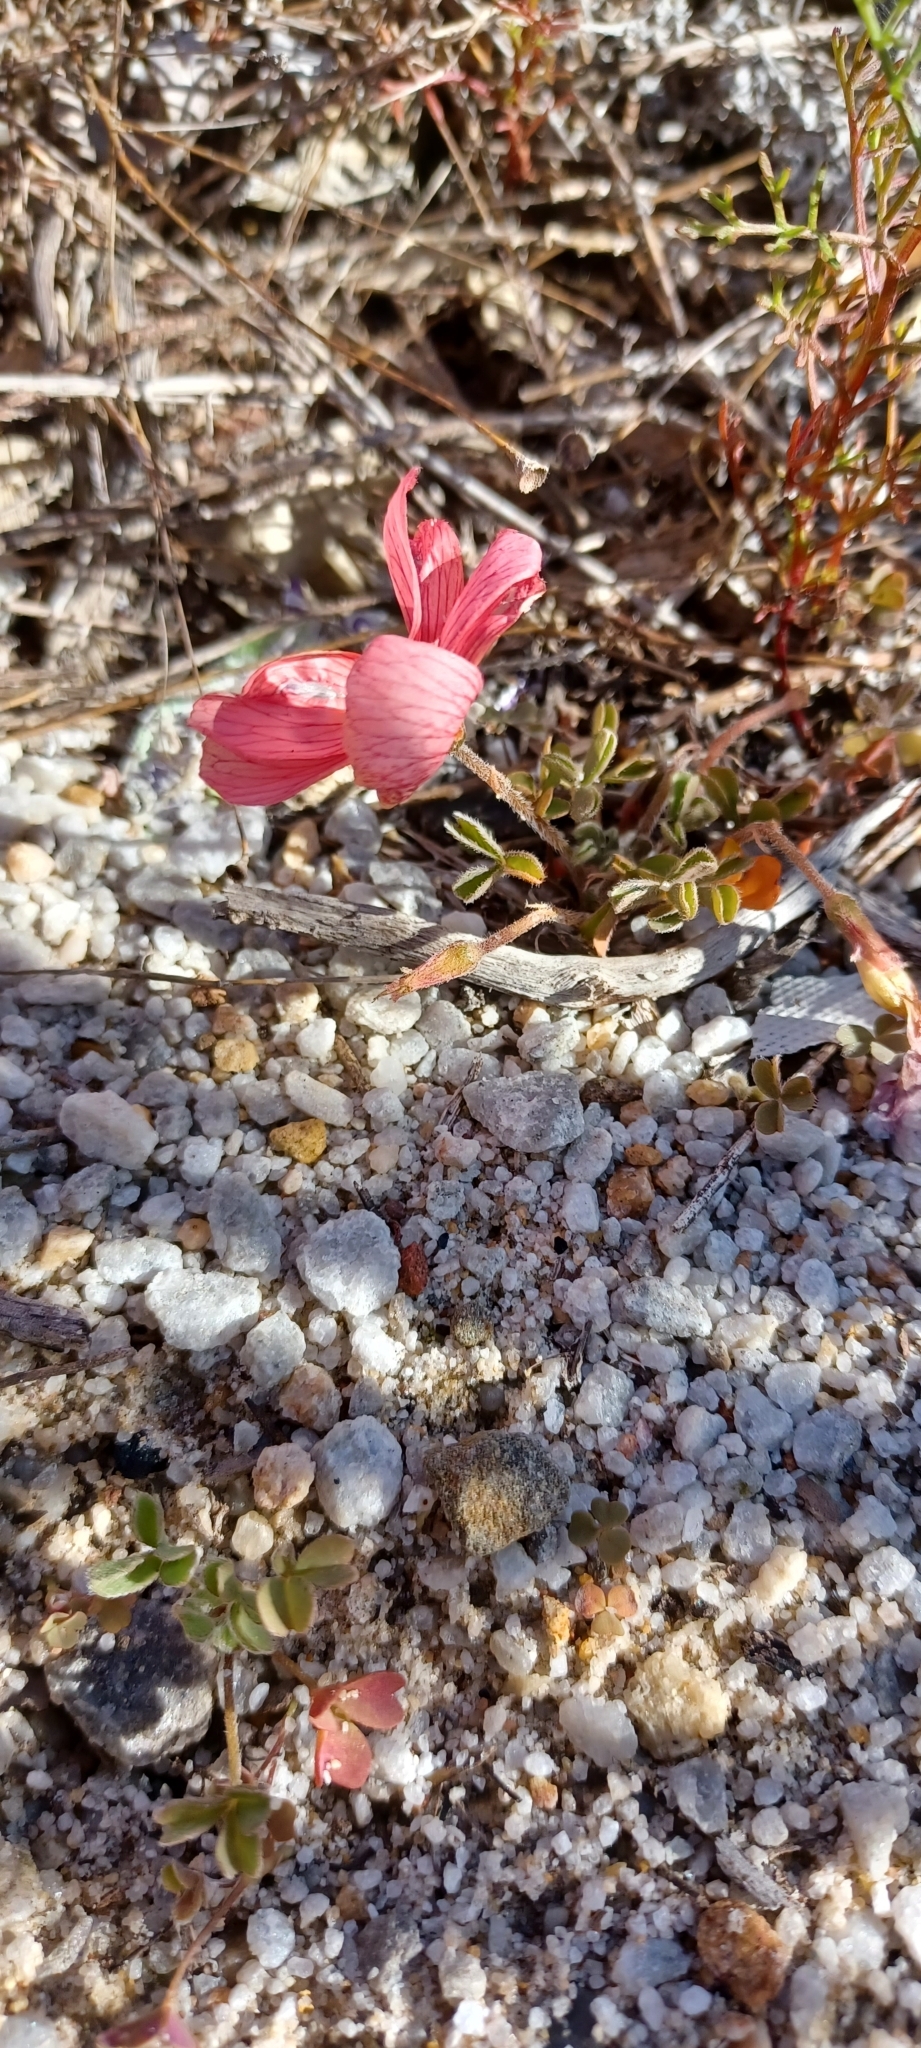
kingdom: Plantae
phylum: Tracheophyta
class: Magnoliopsida
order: Oxalidales
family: Oxalidaceae
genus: Oxalis
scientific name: Oxalis obtusa
